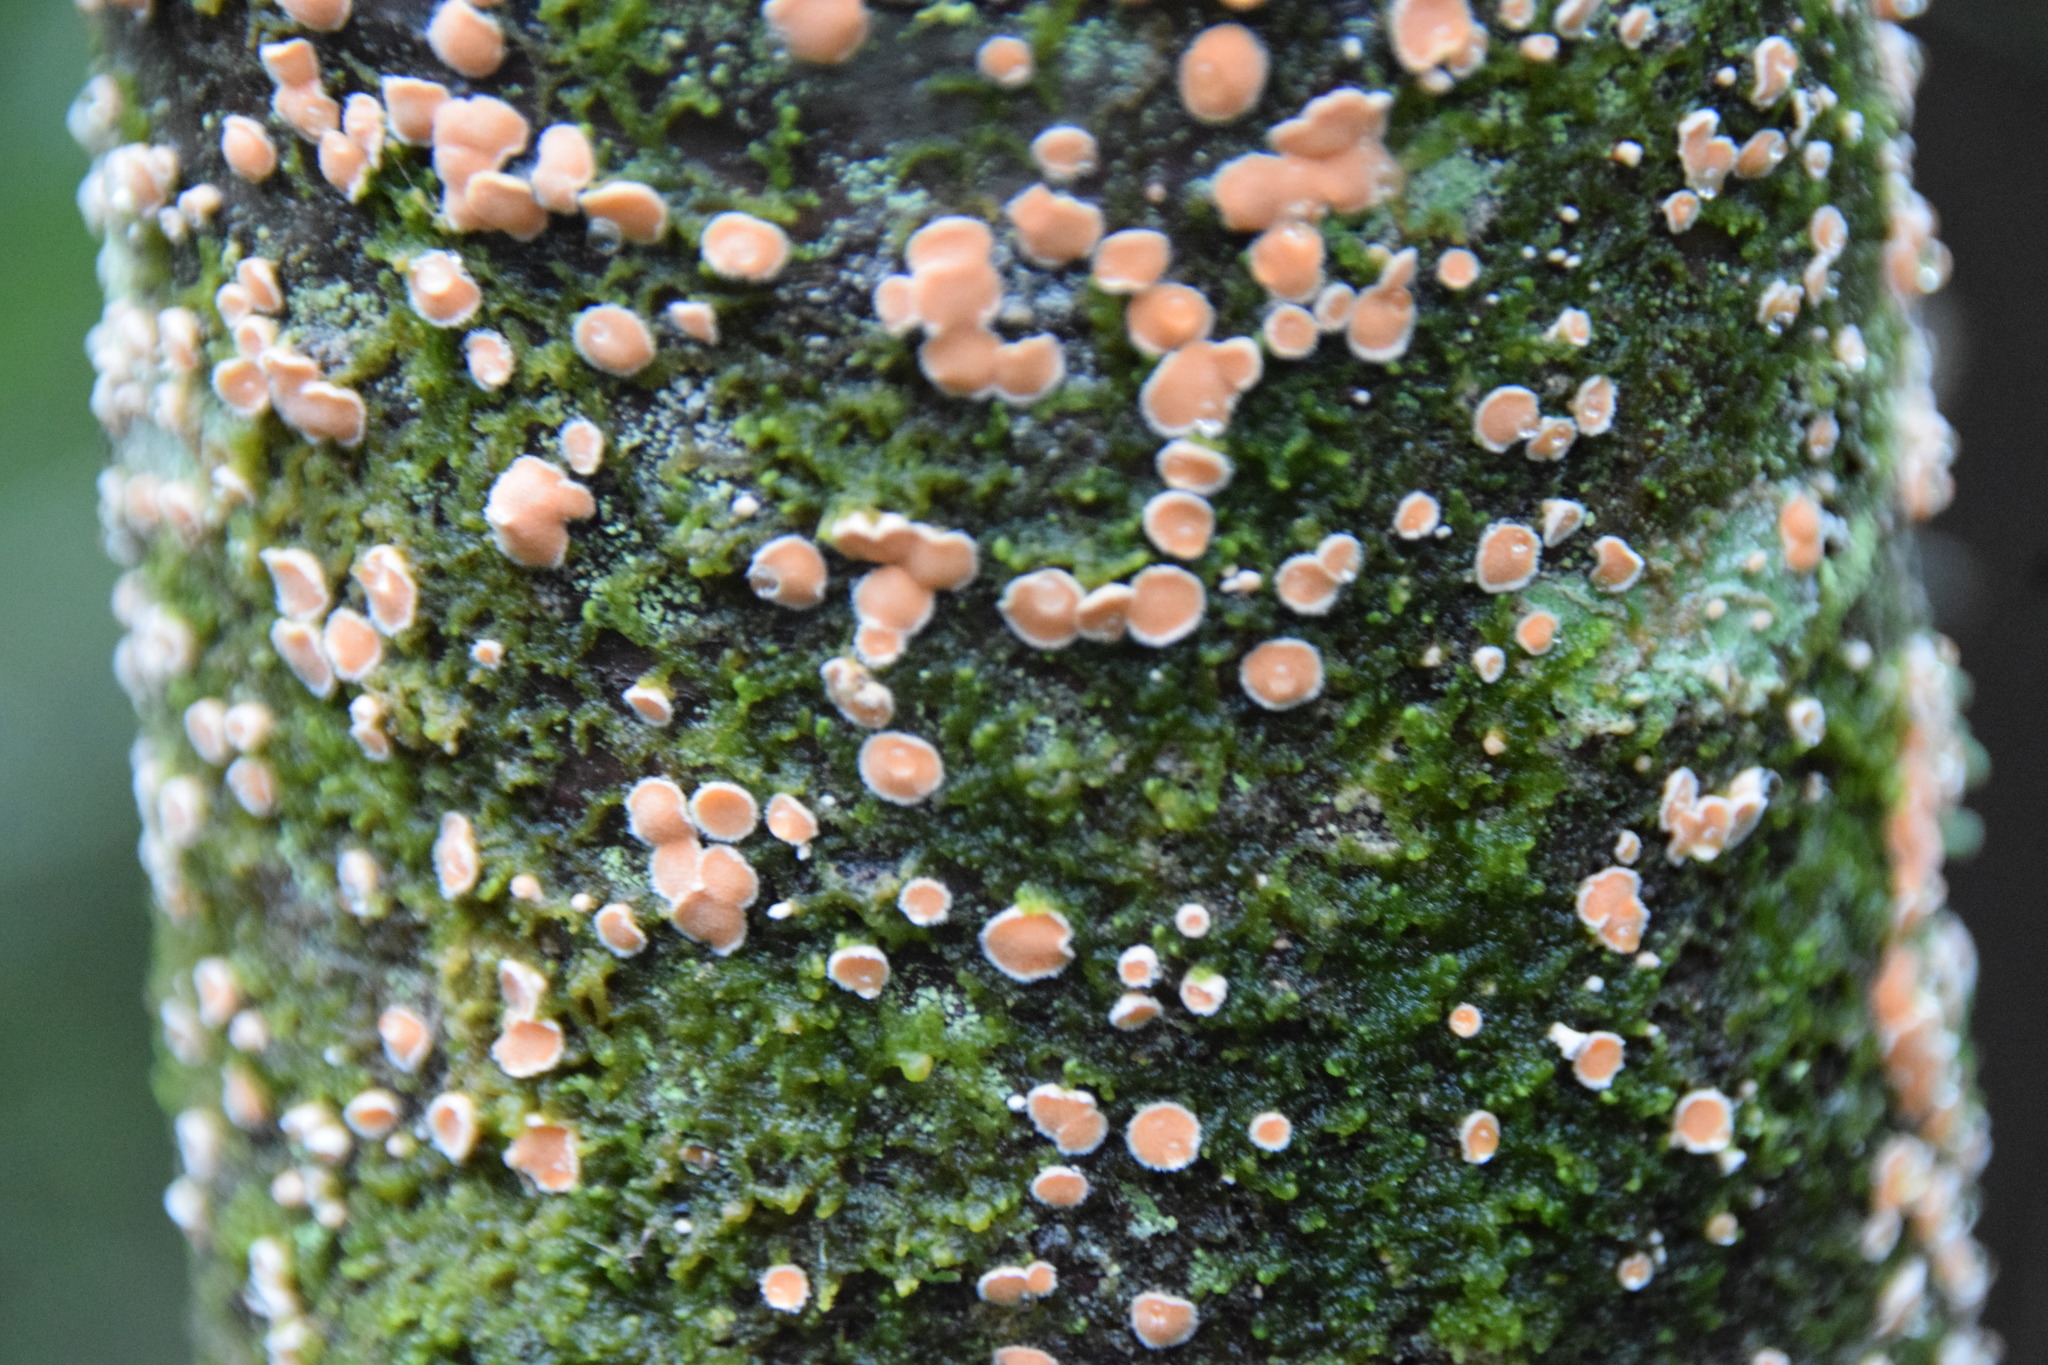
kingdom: Fungi
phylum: Basidiomycota
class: Agaricomycetes
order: Russulales
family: Stereaceae
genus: Aleurodiscus
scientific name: Aleurodiscus amorphus
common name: Orange discus
